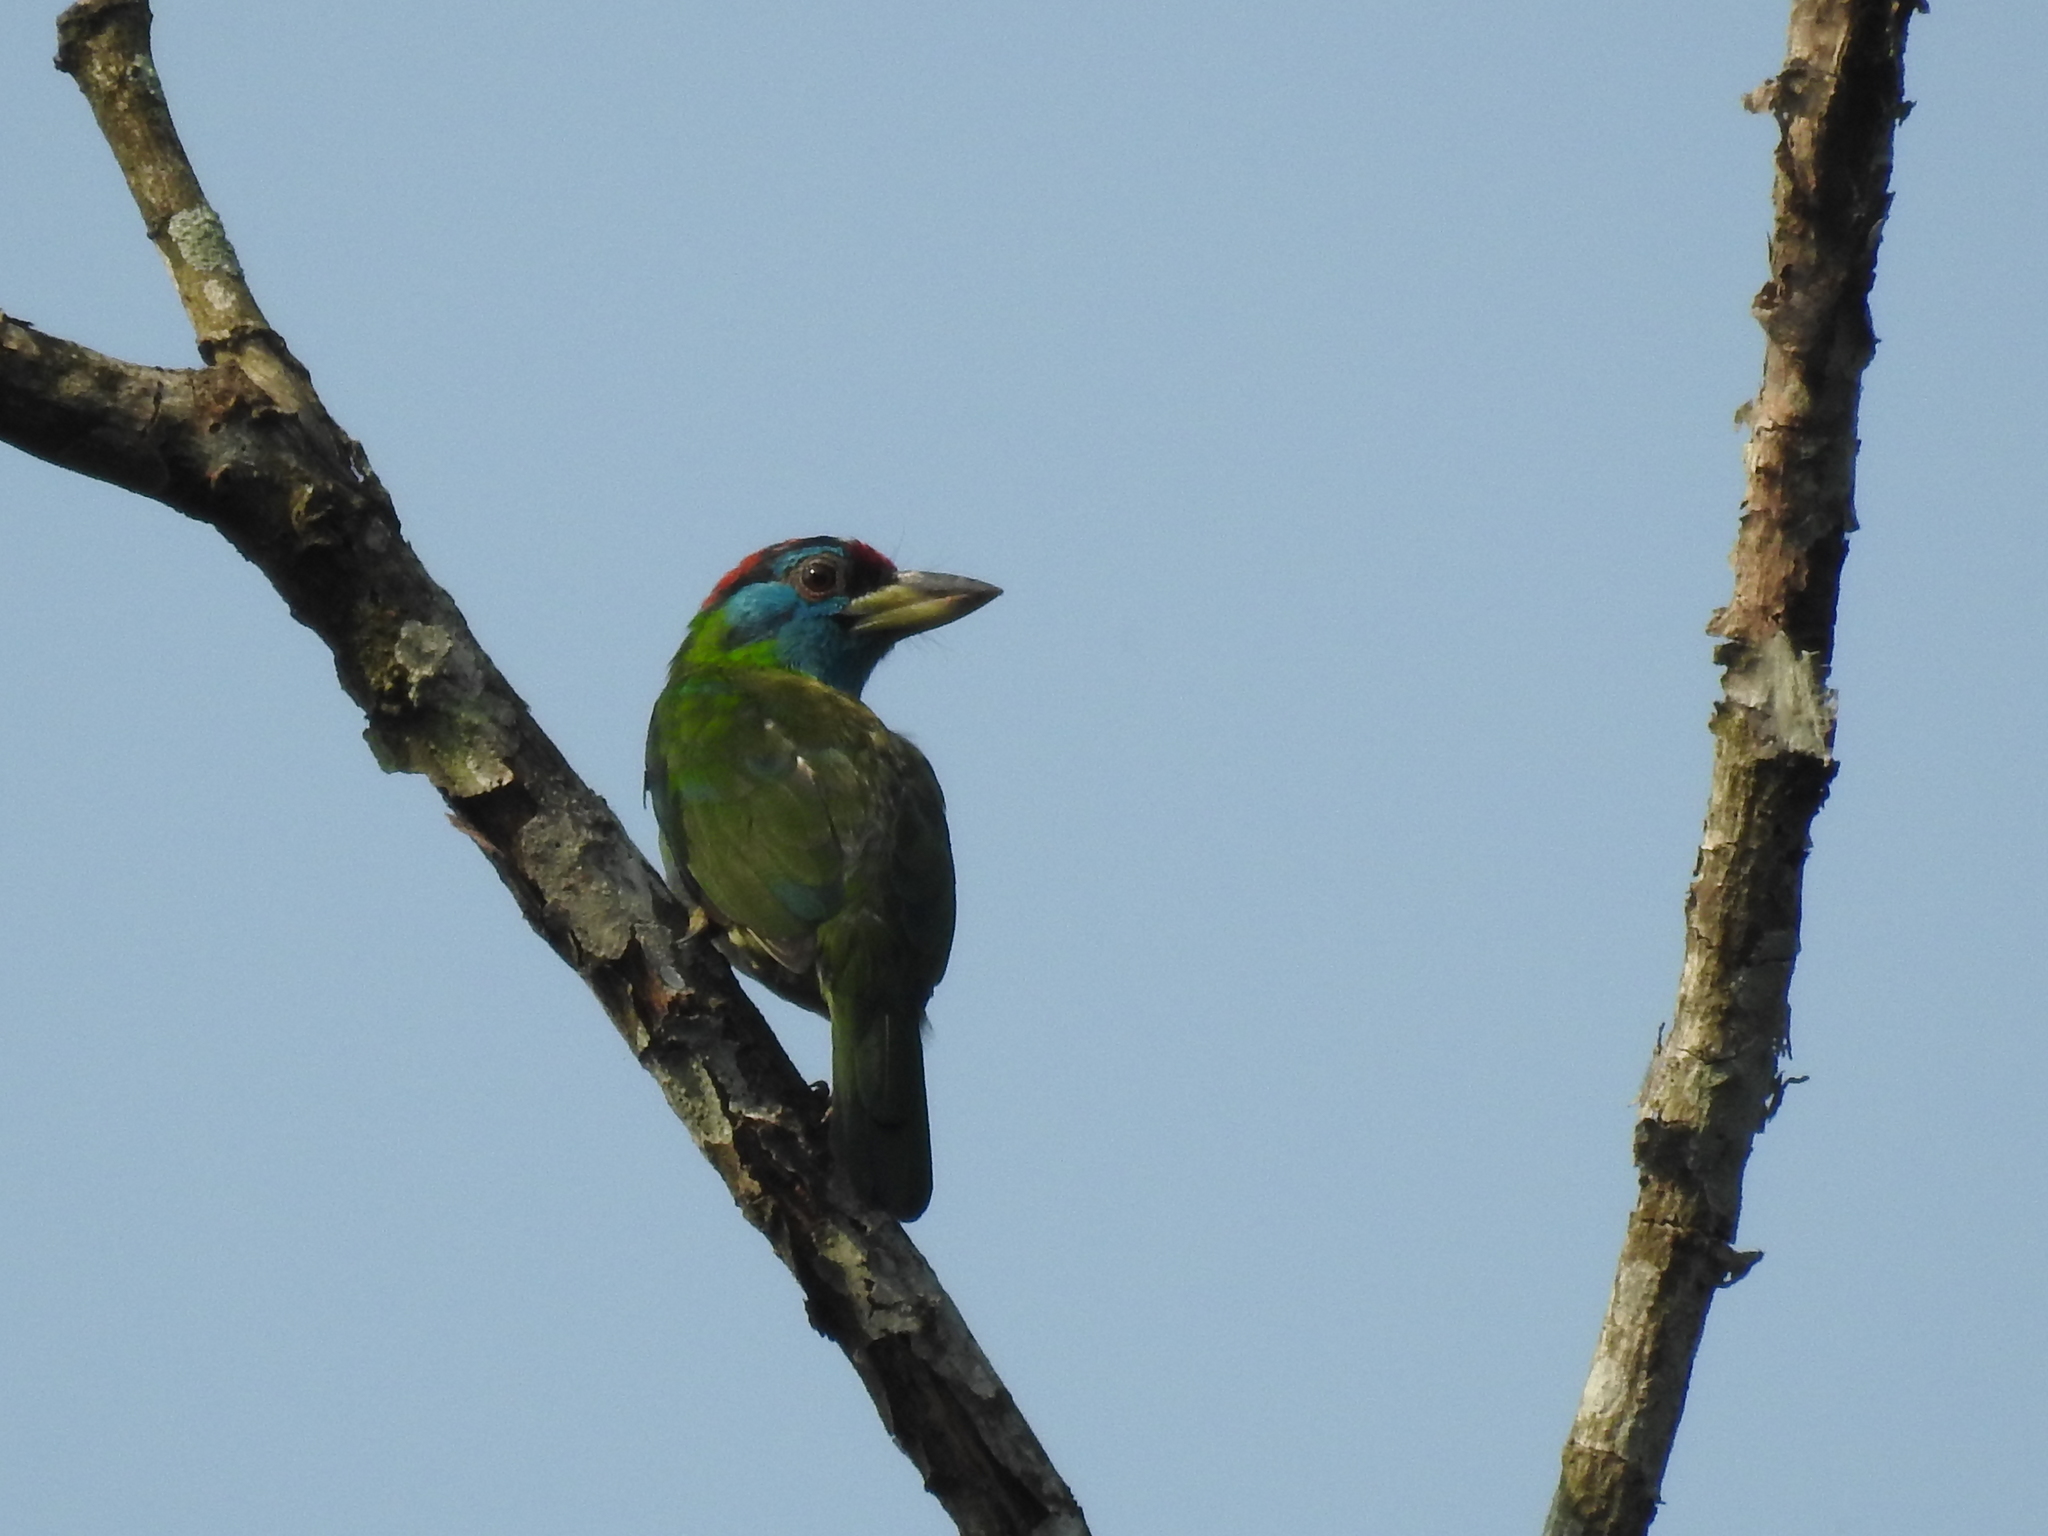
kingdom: Animalia
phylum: Chordata
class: Aves
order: Piciformes
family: Megalaimidae
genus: Psilopogon
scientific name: Psilopogon asiaticus
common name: Blue-throated barbet
